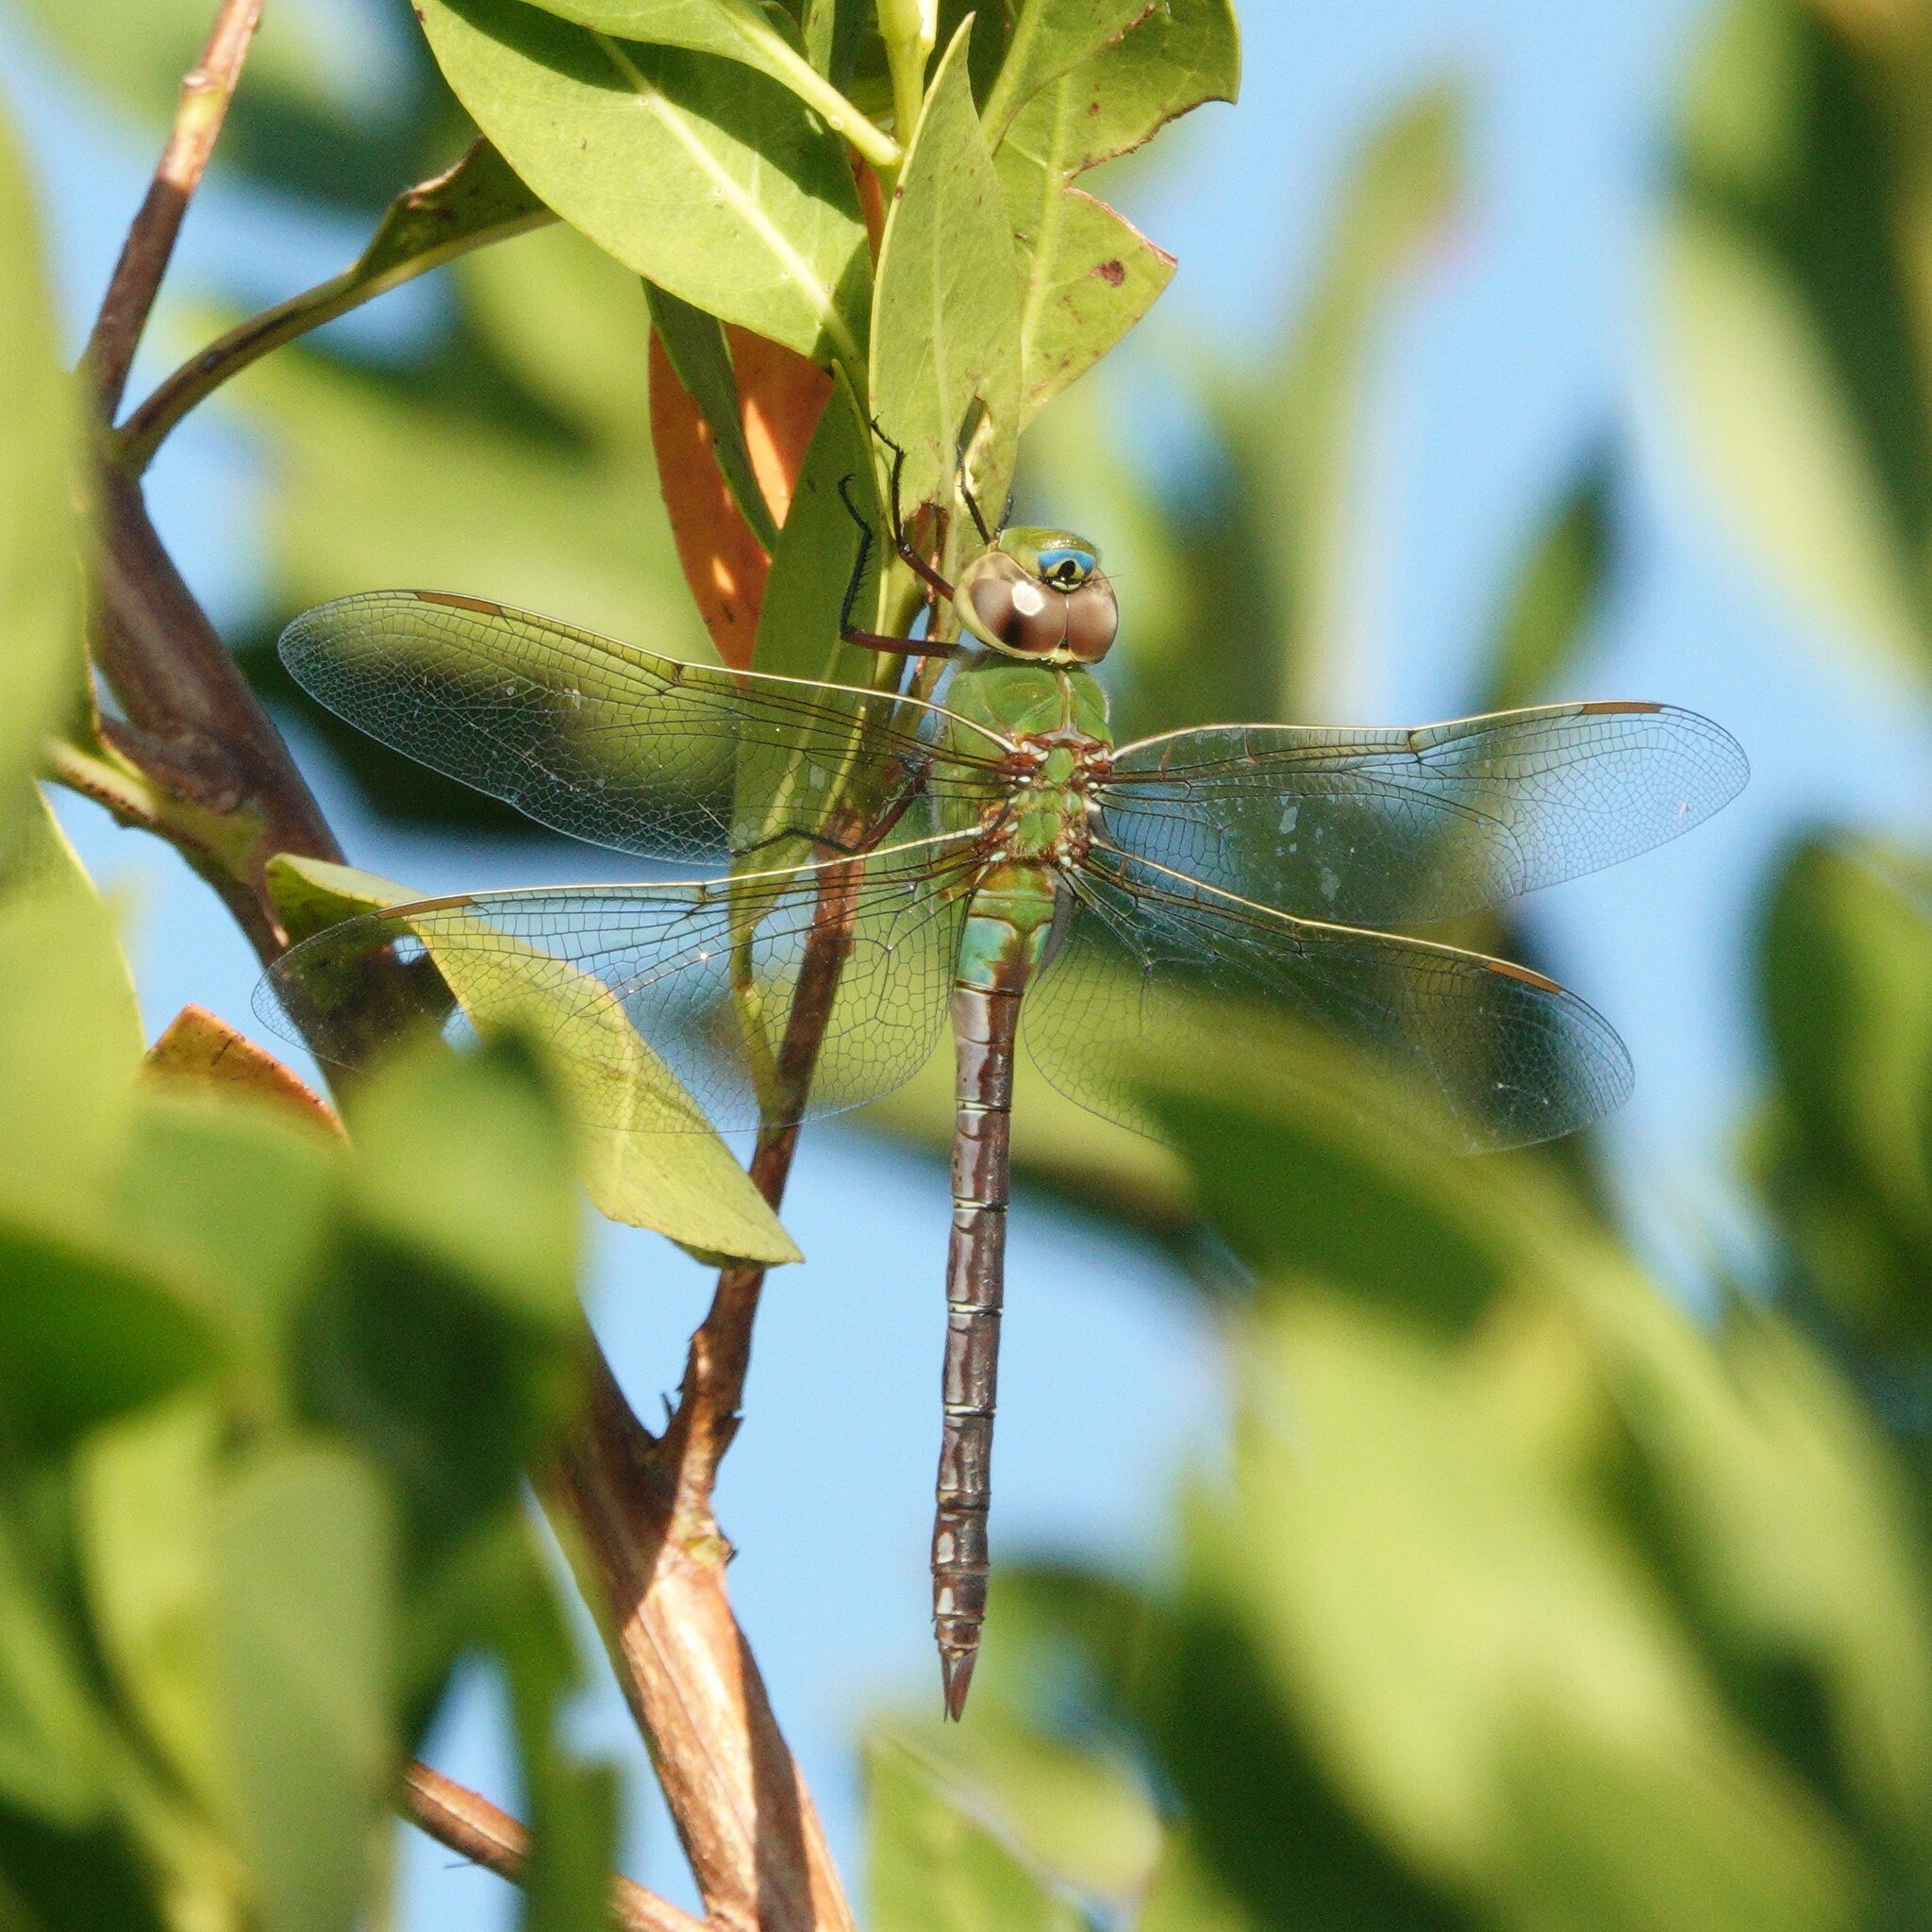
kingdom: Animalia
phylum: Arthropoda
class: Insecta
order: Odonata
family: Aeshnidae
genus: Anax
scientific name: Anax junius
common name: Common green darner
